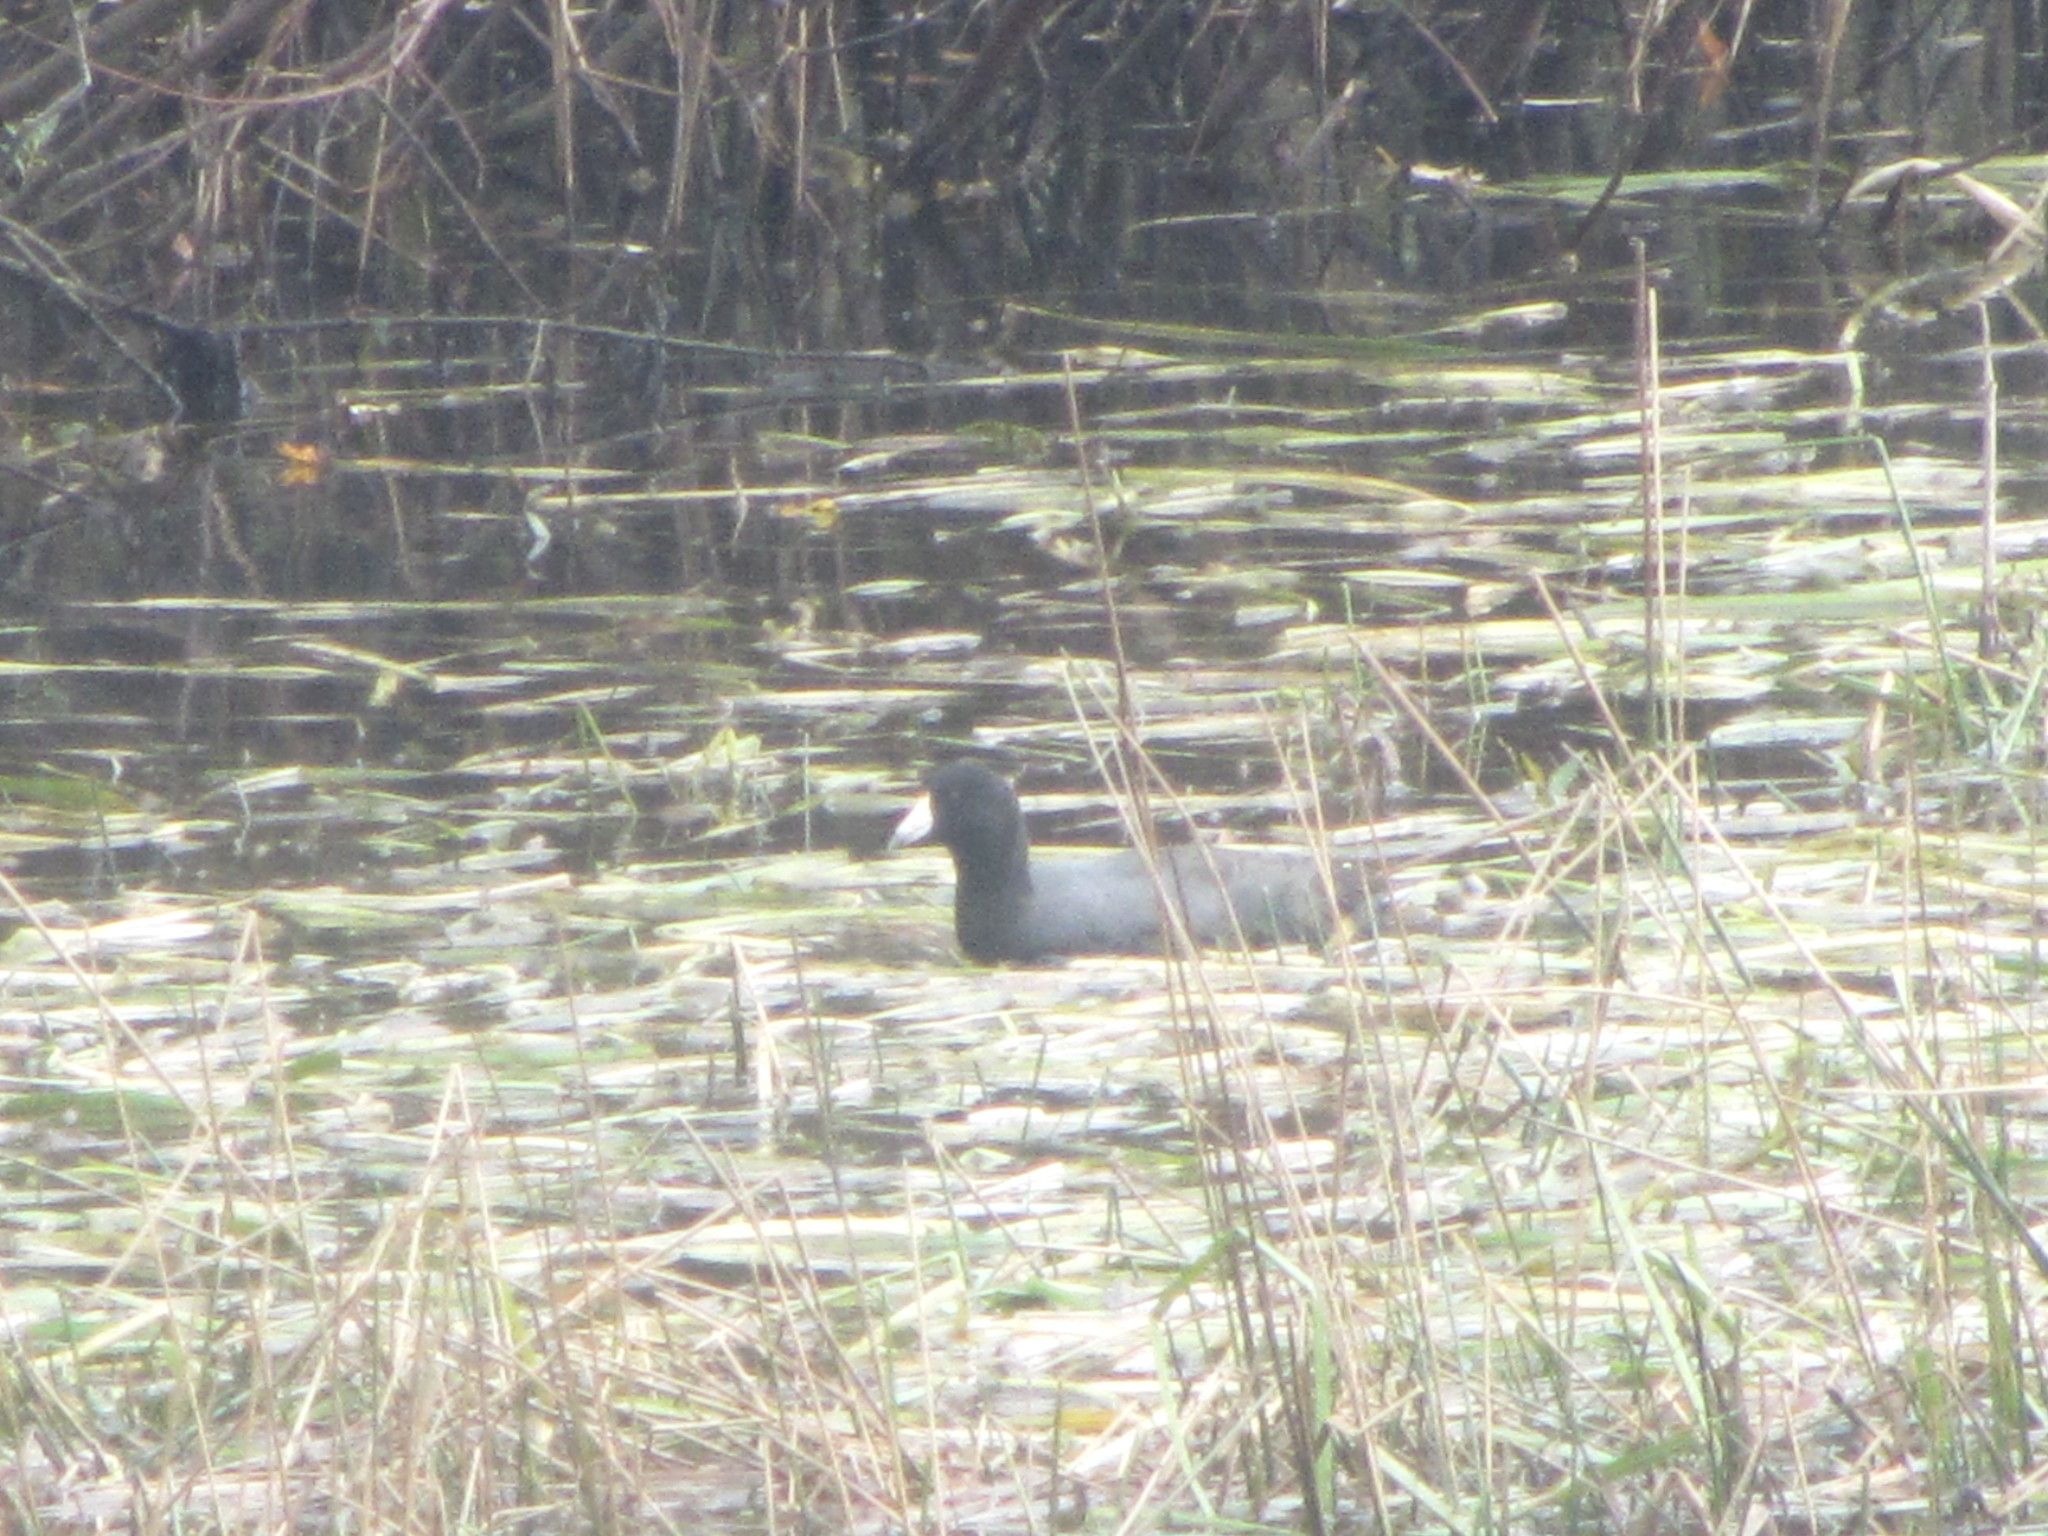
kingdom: Animalia
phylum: Chordata
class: Aves
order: Gruiformes
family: Rallidae
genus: Fulica
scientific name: Fulica americana
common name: American coot
